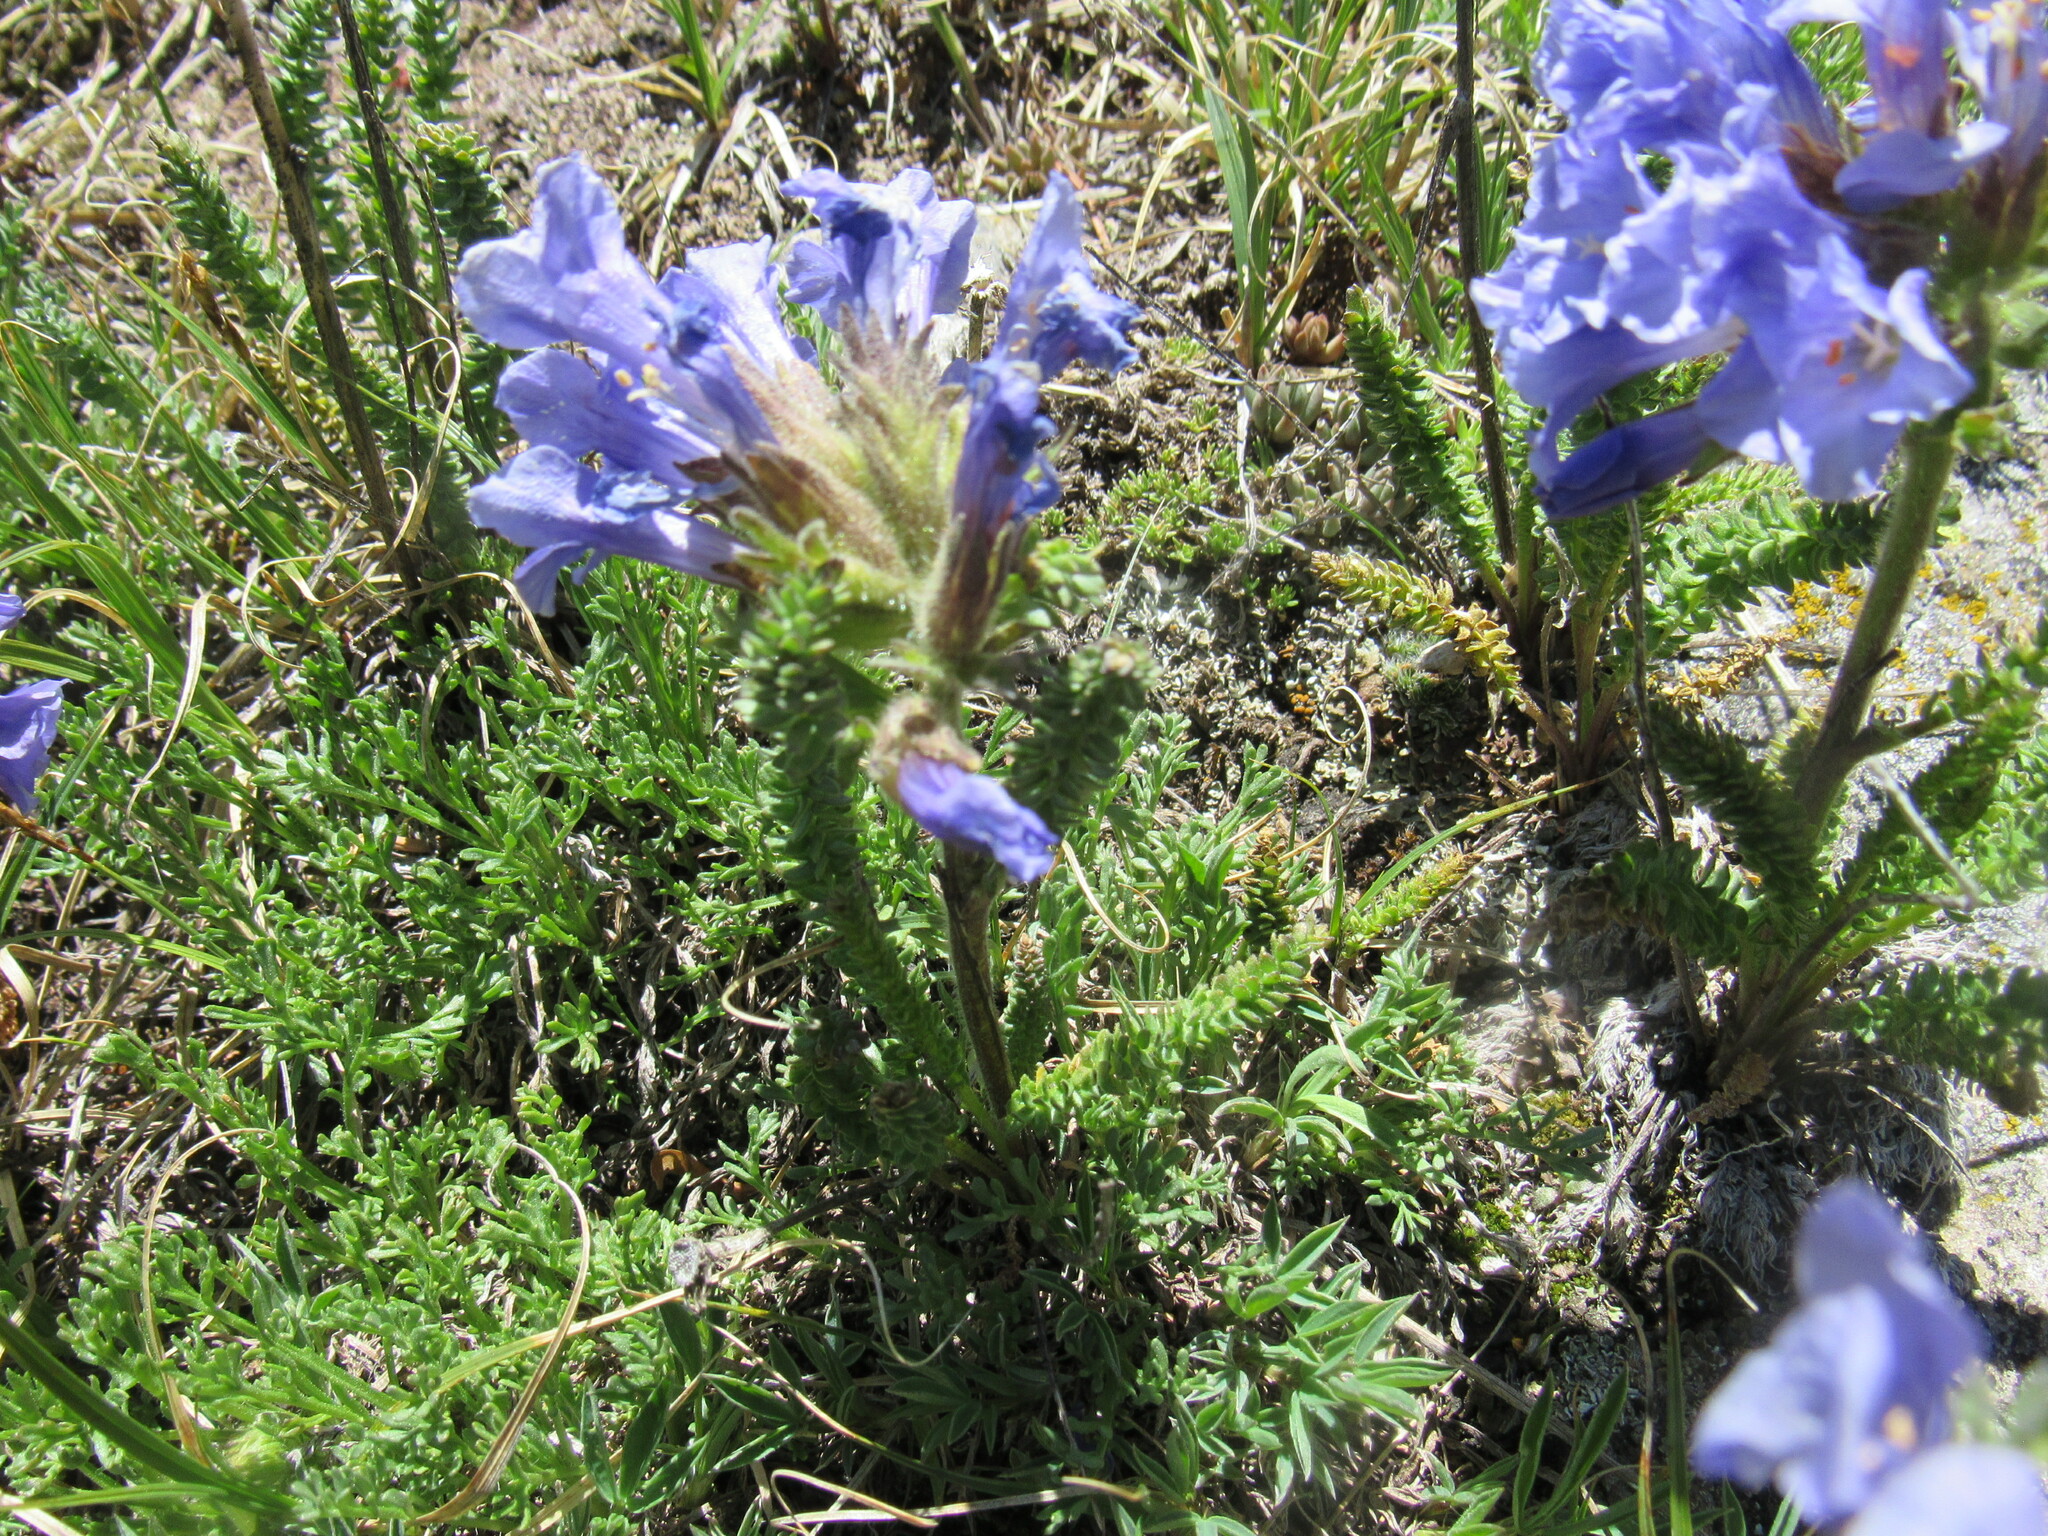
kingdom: Plantae
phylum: Tracheophyta
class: Magnoliopsida
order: Ericales
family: Polemoniaceae
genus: Polemonium
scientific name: Polemonium viscosum
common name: Skunk jacob's-ladder
